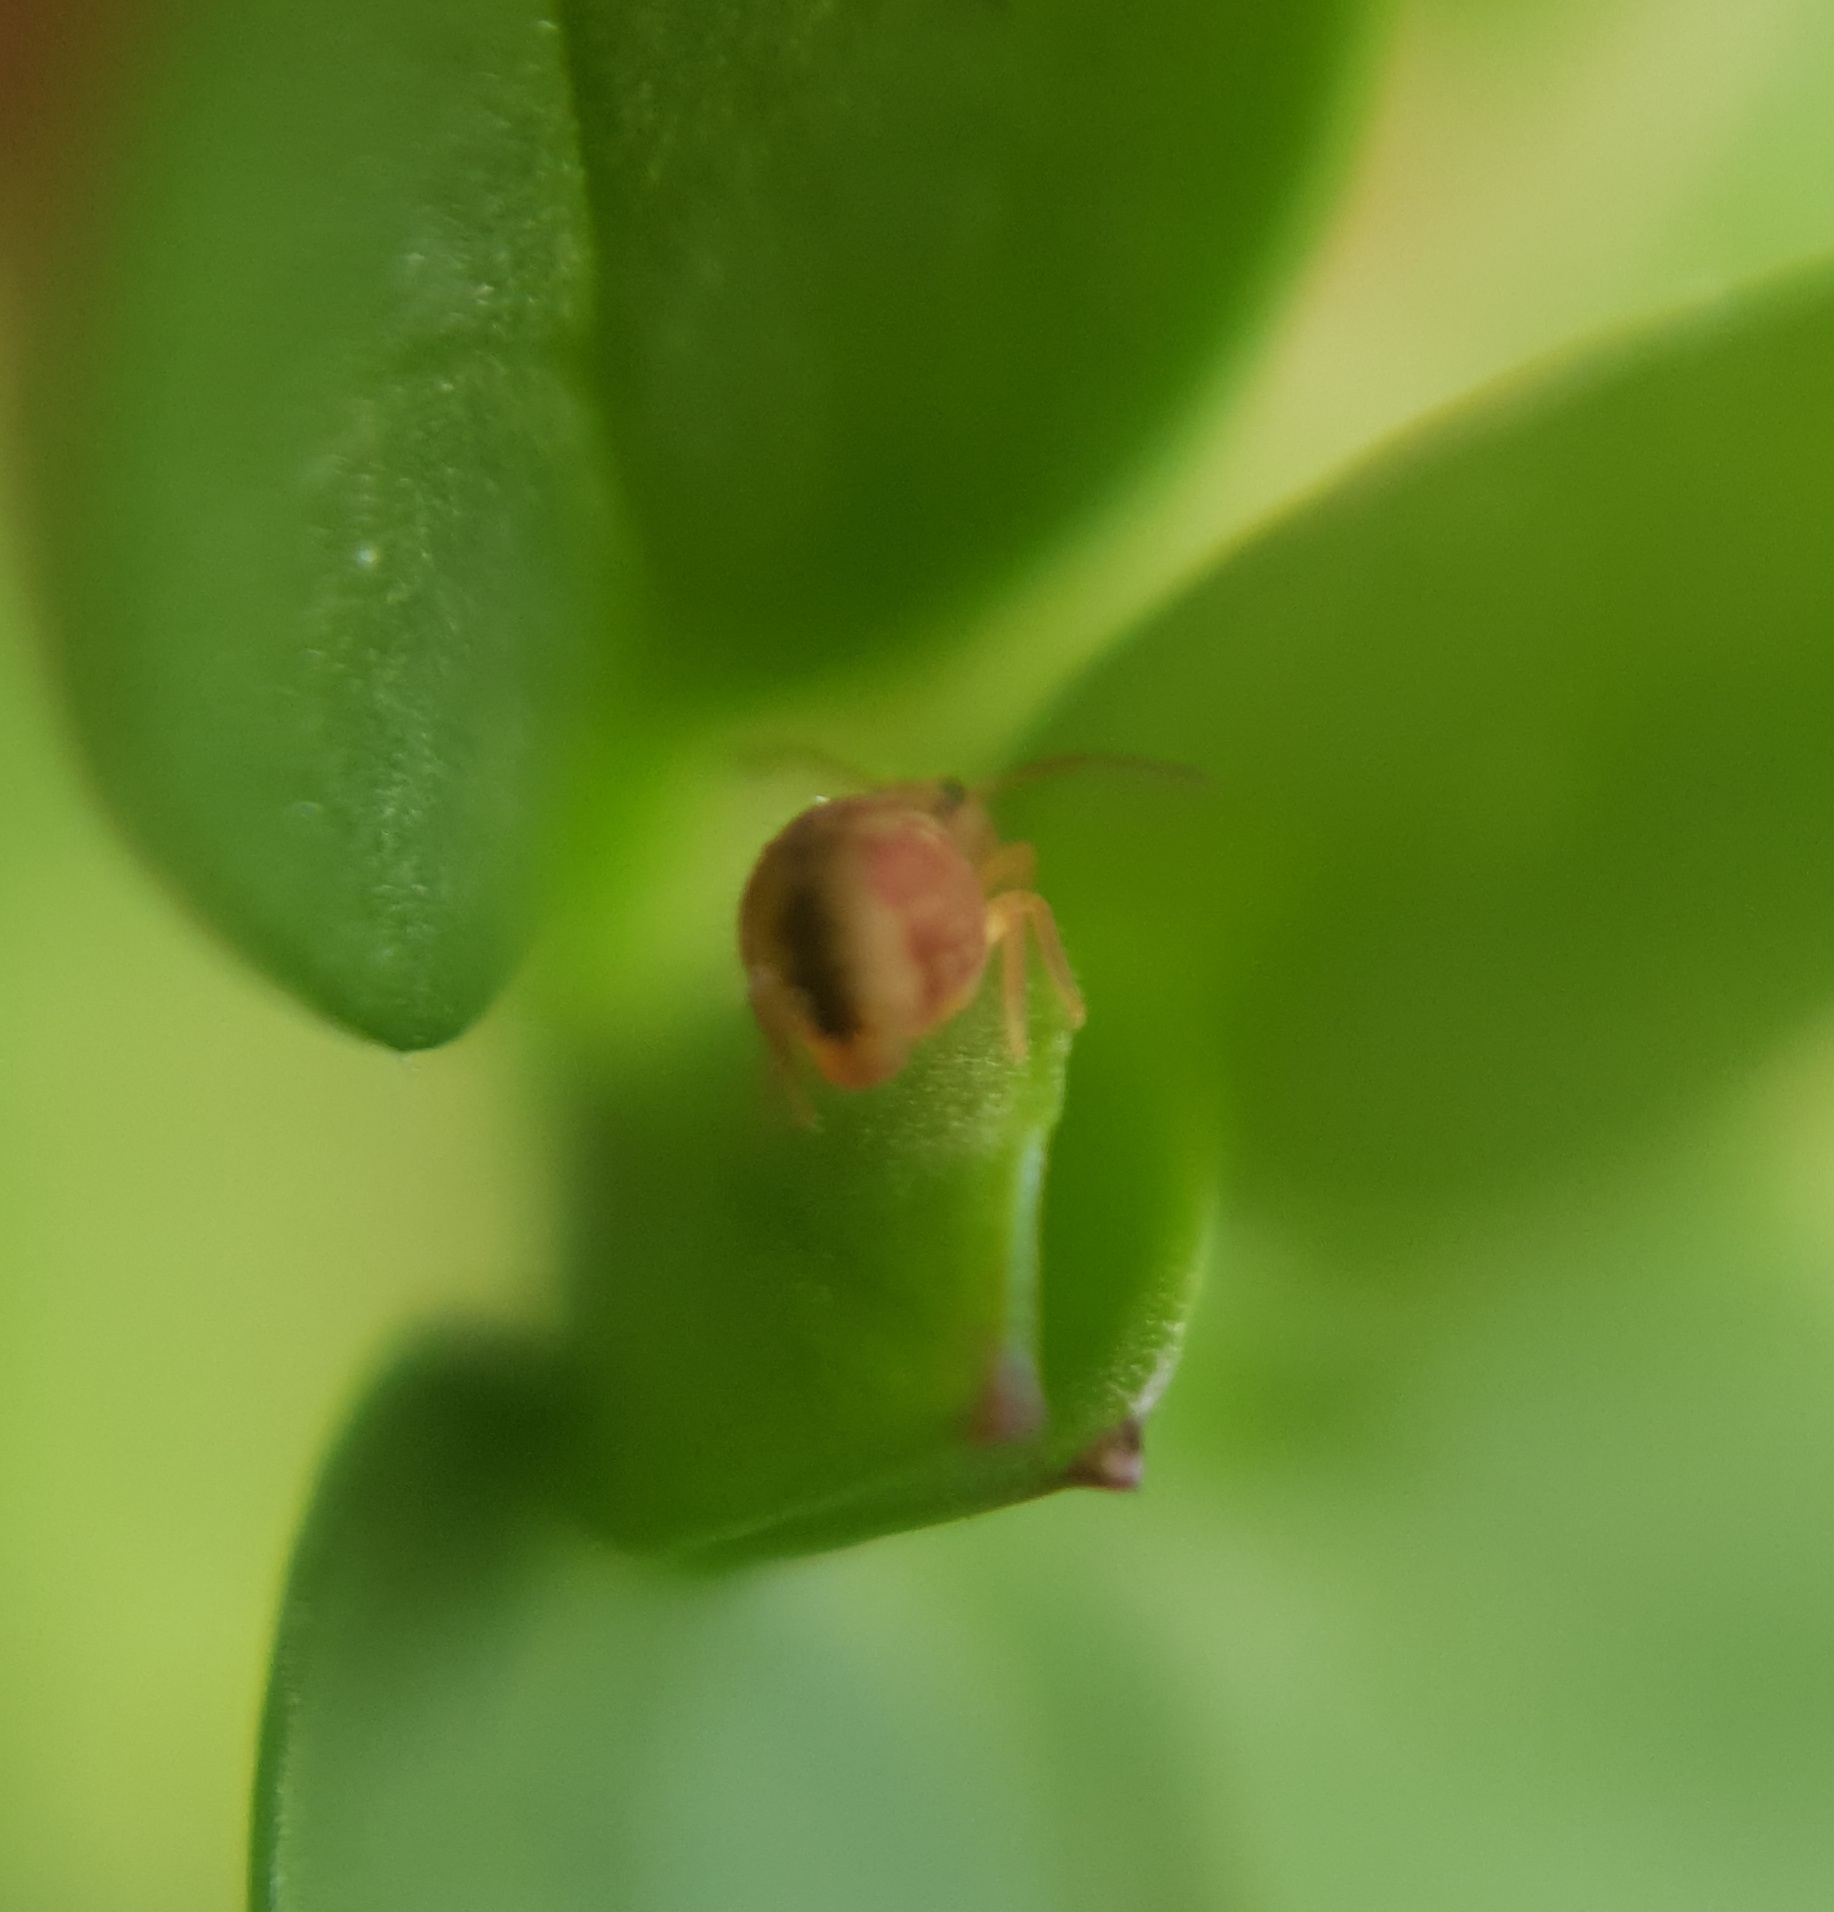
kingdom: Animalia
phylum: Arthropoda
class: Collembola
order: Symphypleona
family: Dicyrtomidae
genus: Dicyrtomina
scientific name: Dicyrtomina ornata
